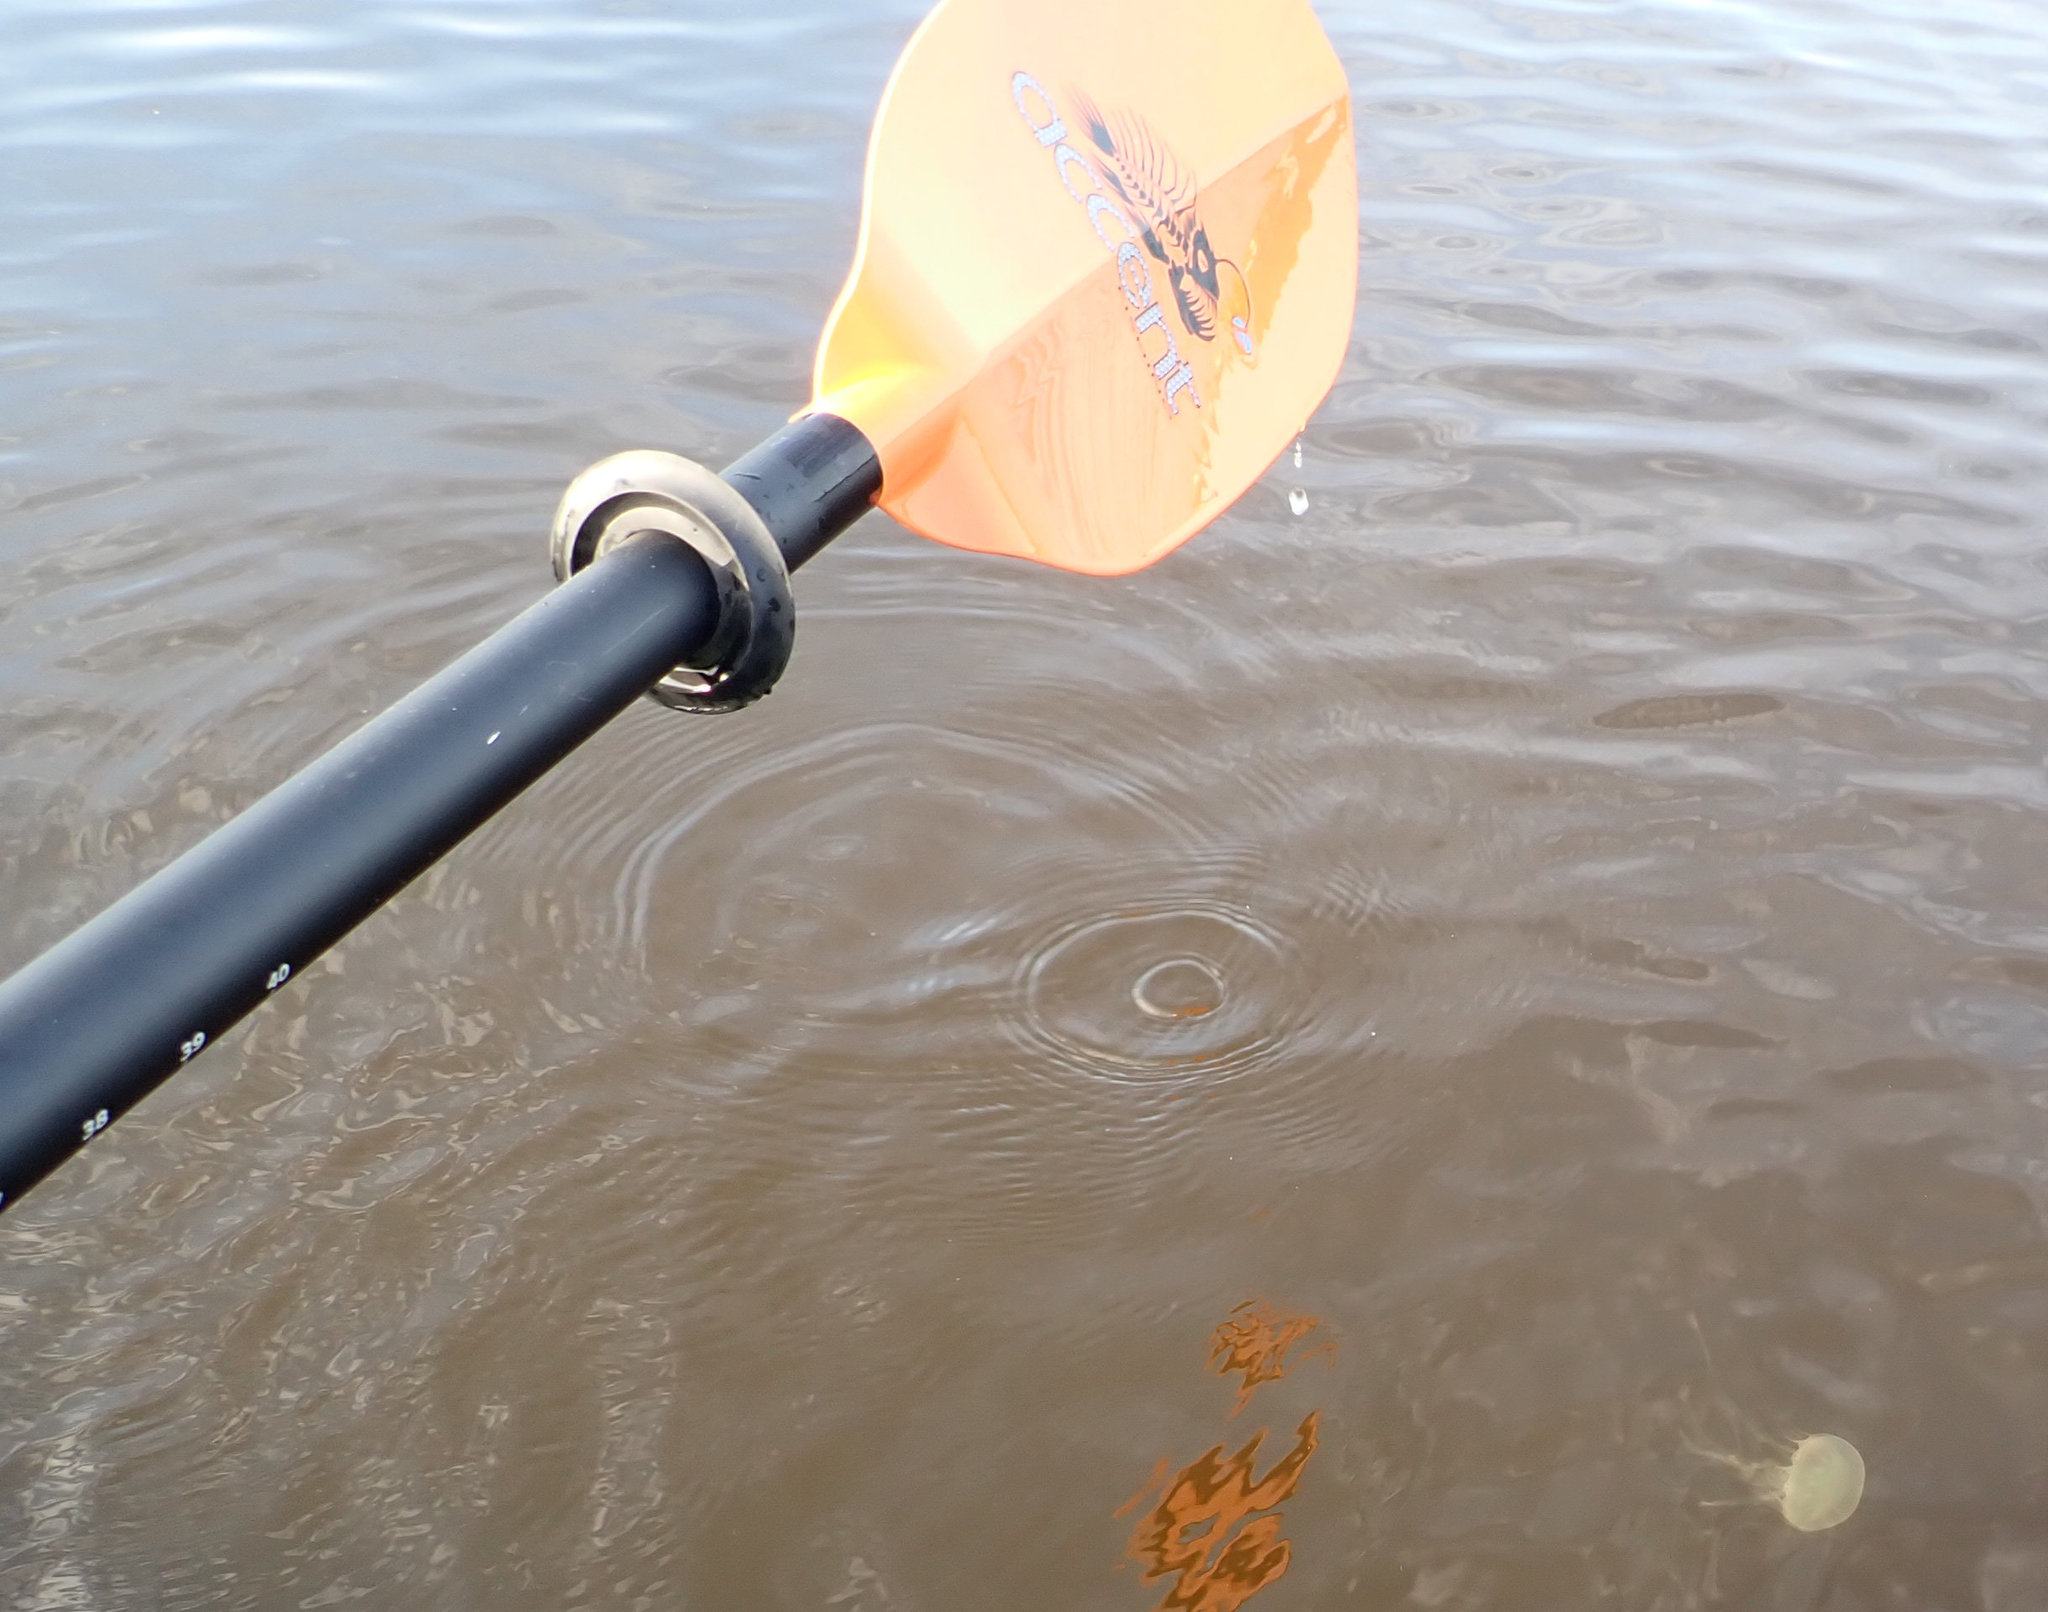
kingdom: Animalia
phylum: Cnidaria
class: Scyphozoa
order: Semaeostomeae
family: Pelagiidae
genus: Chrysaora
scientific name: Chrysaora chesapeakei
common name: Bay nettle
